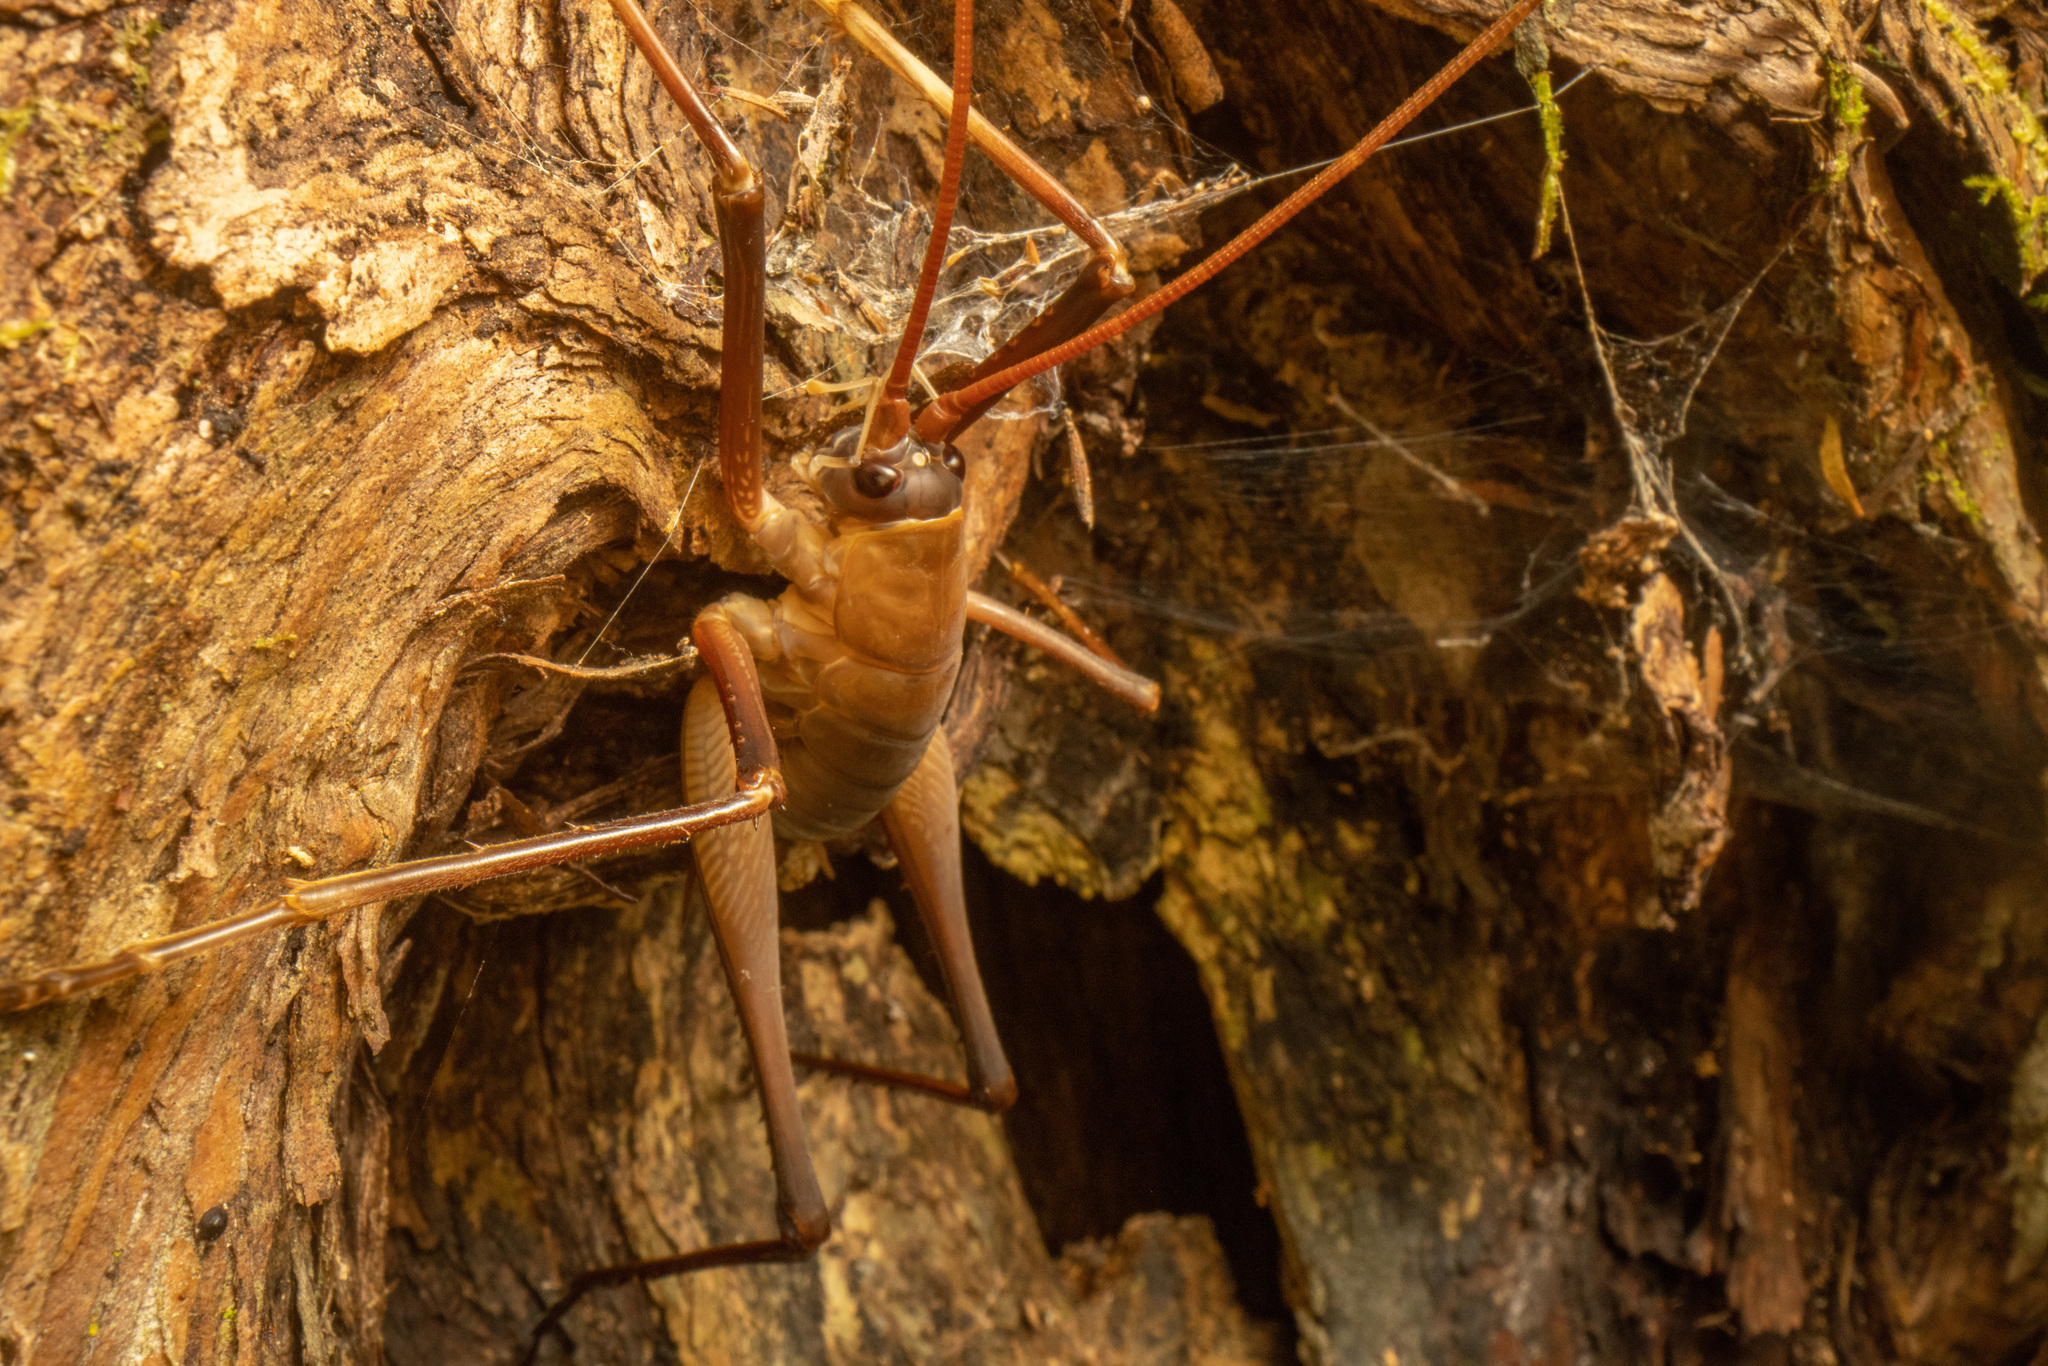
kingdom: Animalia
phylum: Arthropoda
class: Insecta
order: Orthoptera
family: Rhaphidophoridae
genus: Pachyrhamma
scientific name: Pachyrhamma longipes
